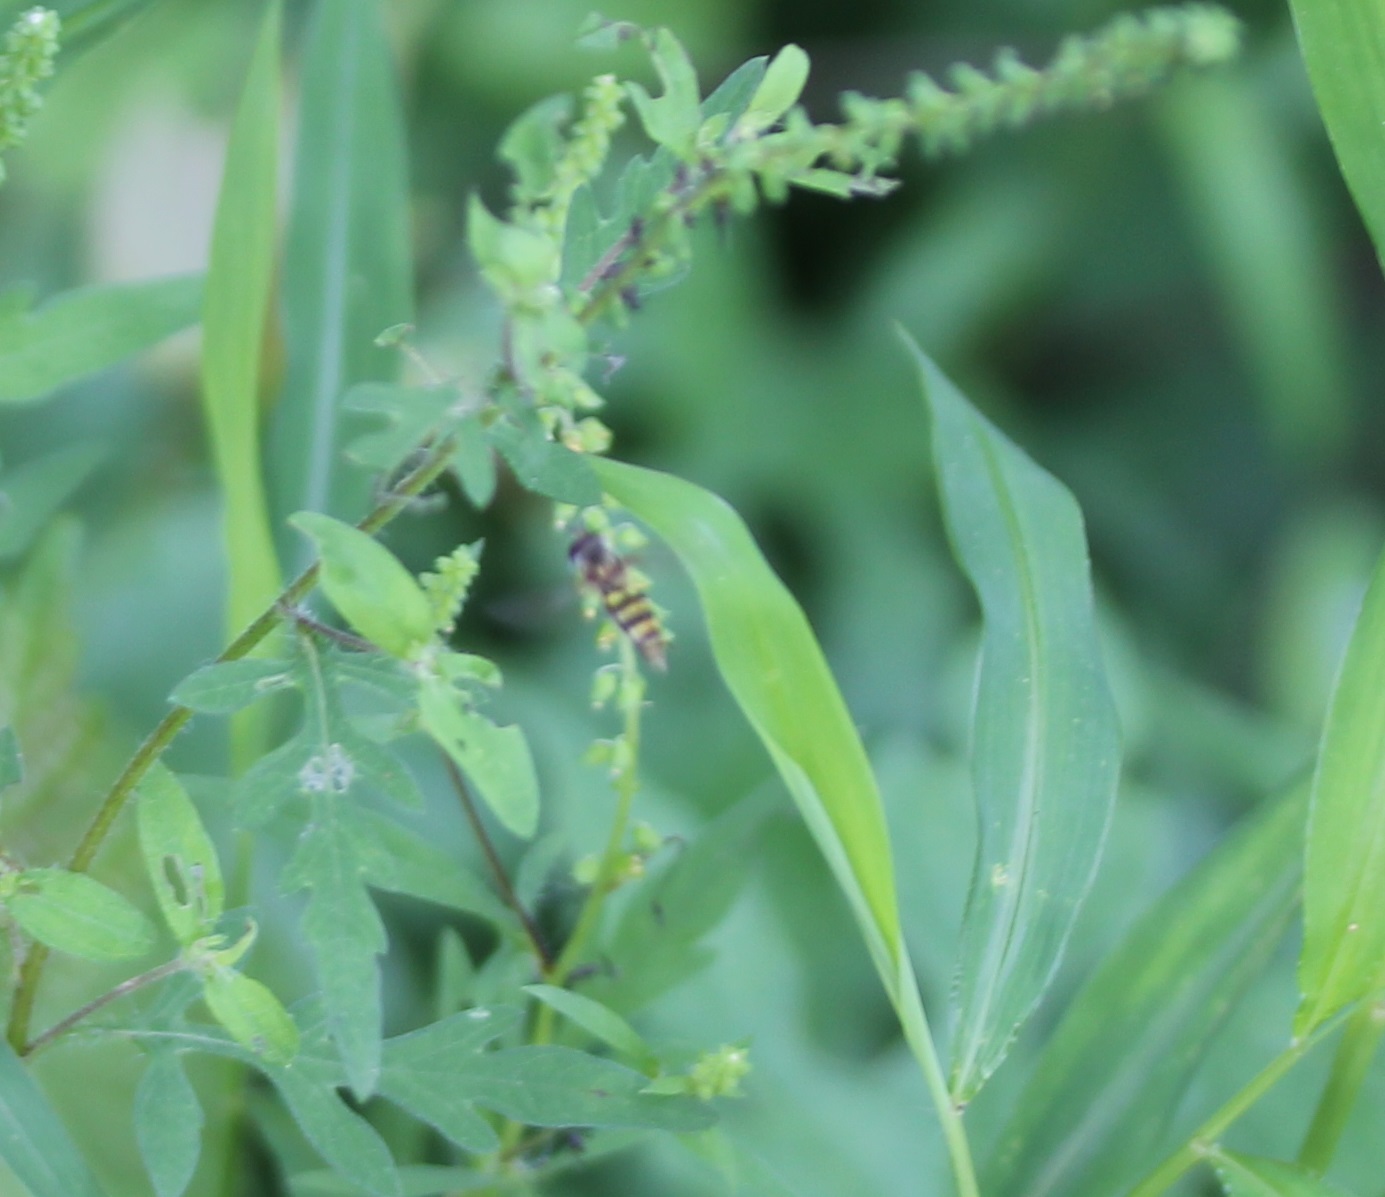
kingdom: Animalia
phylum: Arthropoda
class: Insecta
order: Diptera
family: Syrphidae
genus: Eupeodes
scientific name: Eupeodes
